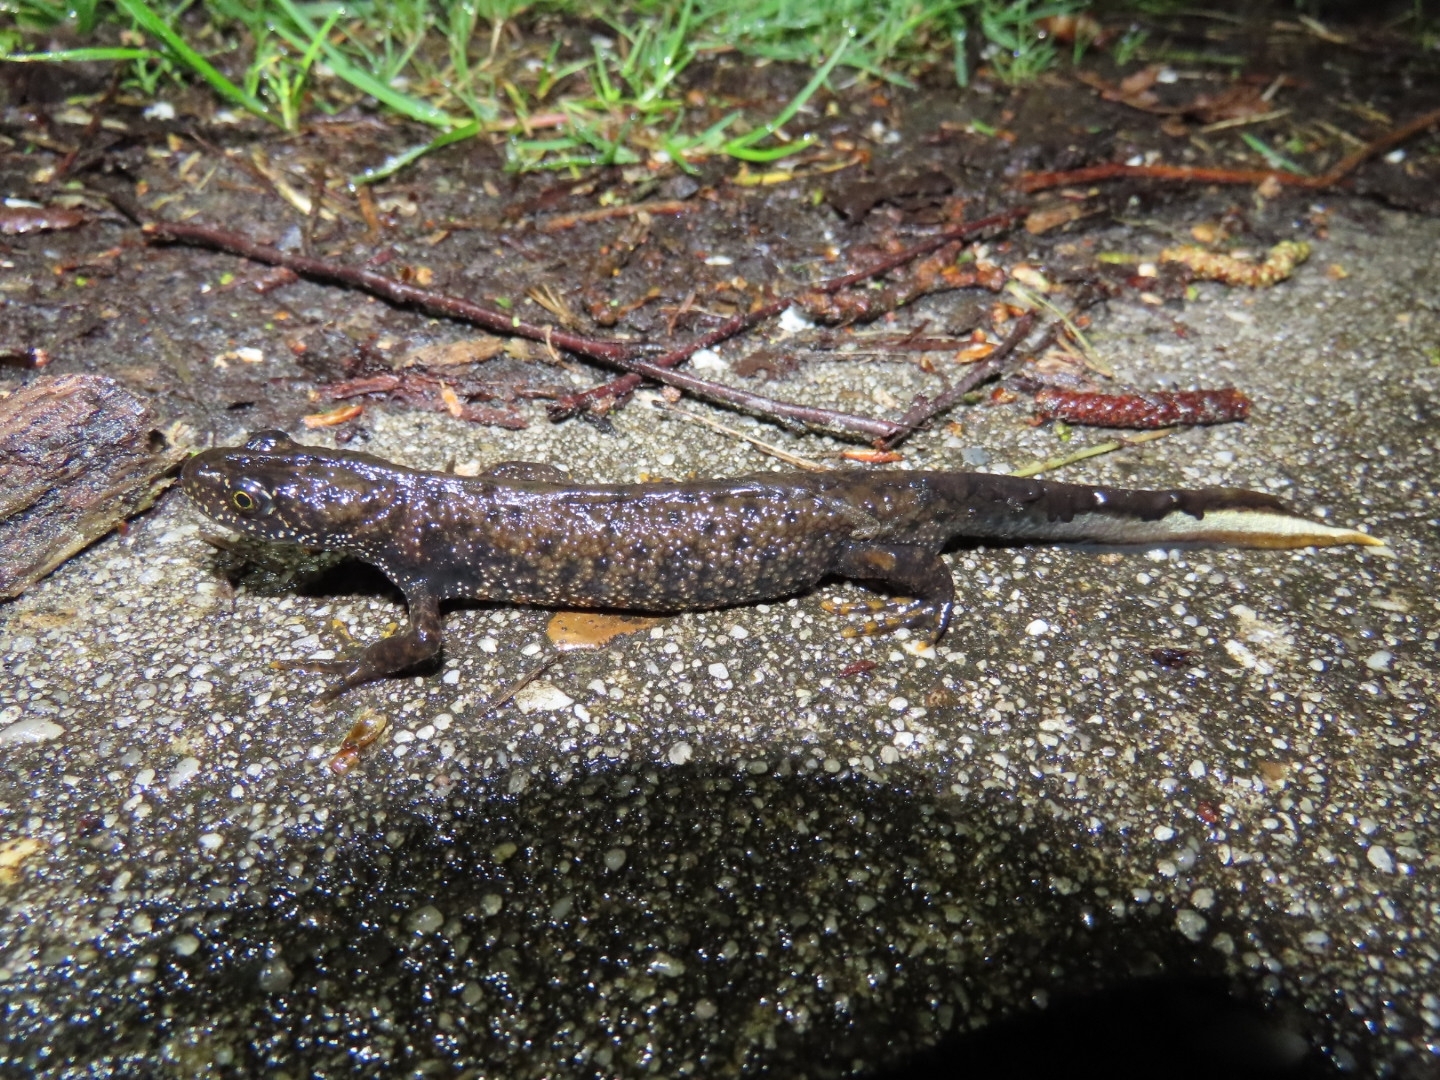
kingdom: Animalia
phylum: Chordata
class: Amphibia
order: Caudata
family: Salamandridae
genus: Triturus
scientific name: Triturus cristatus
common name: Crested newt
